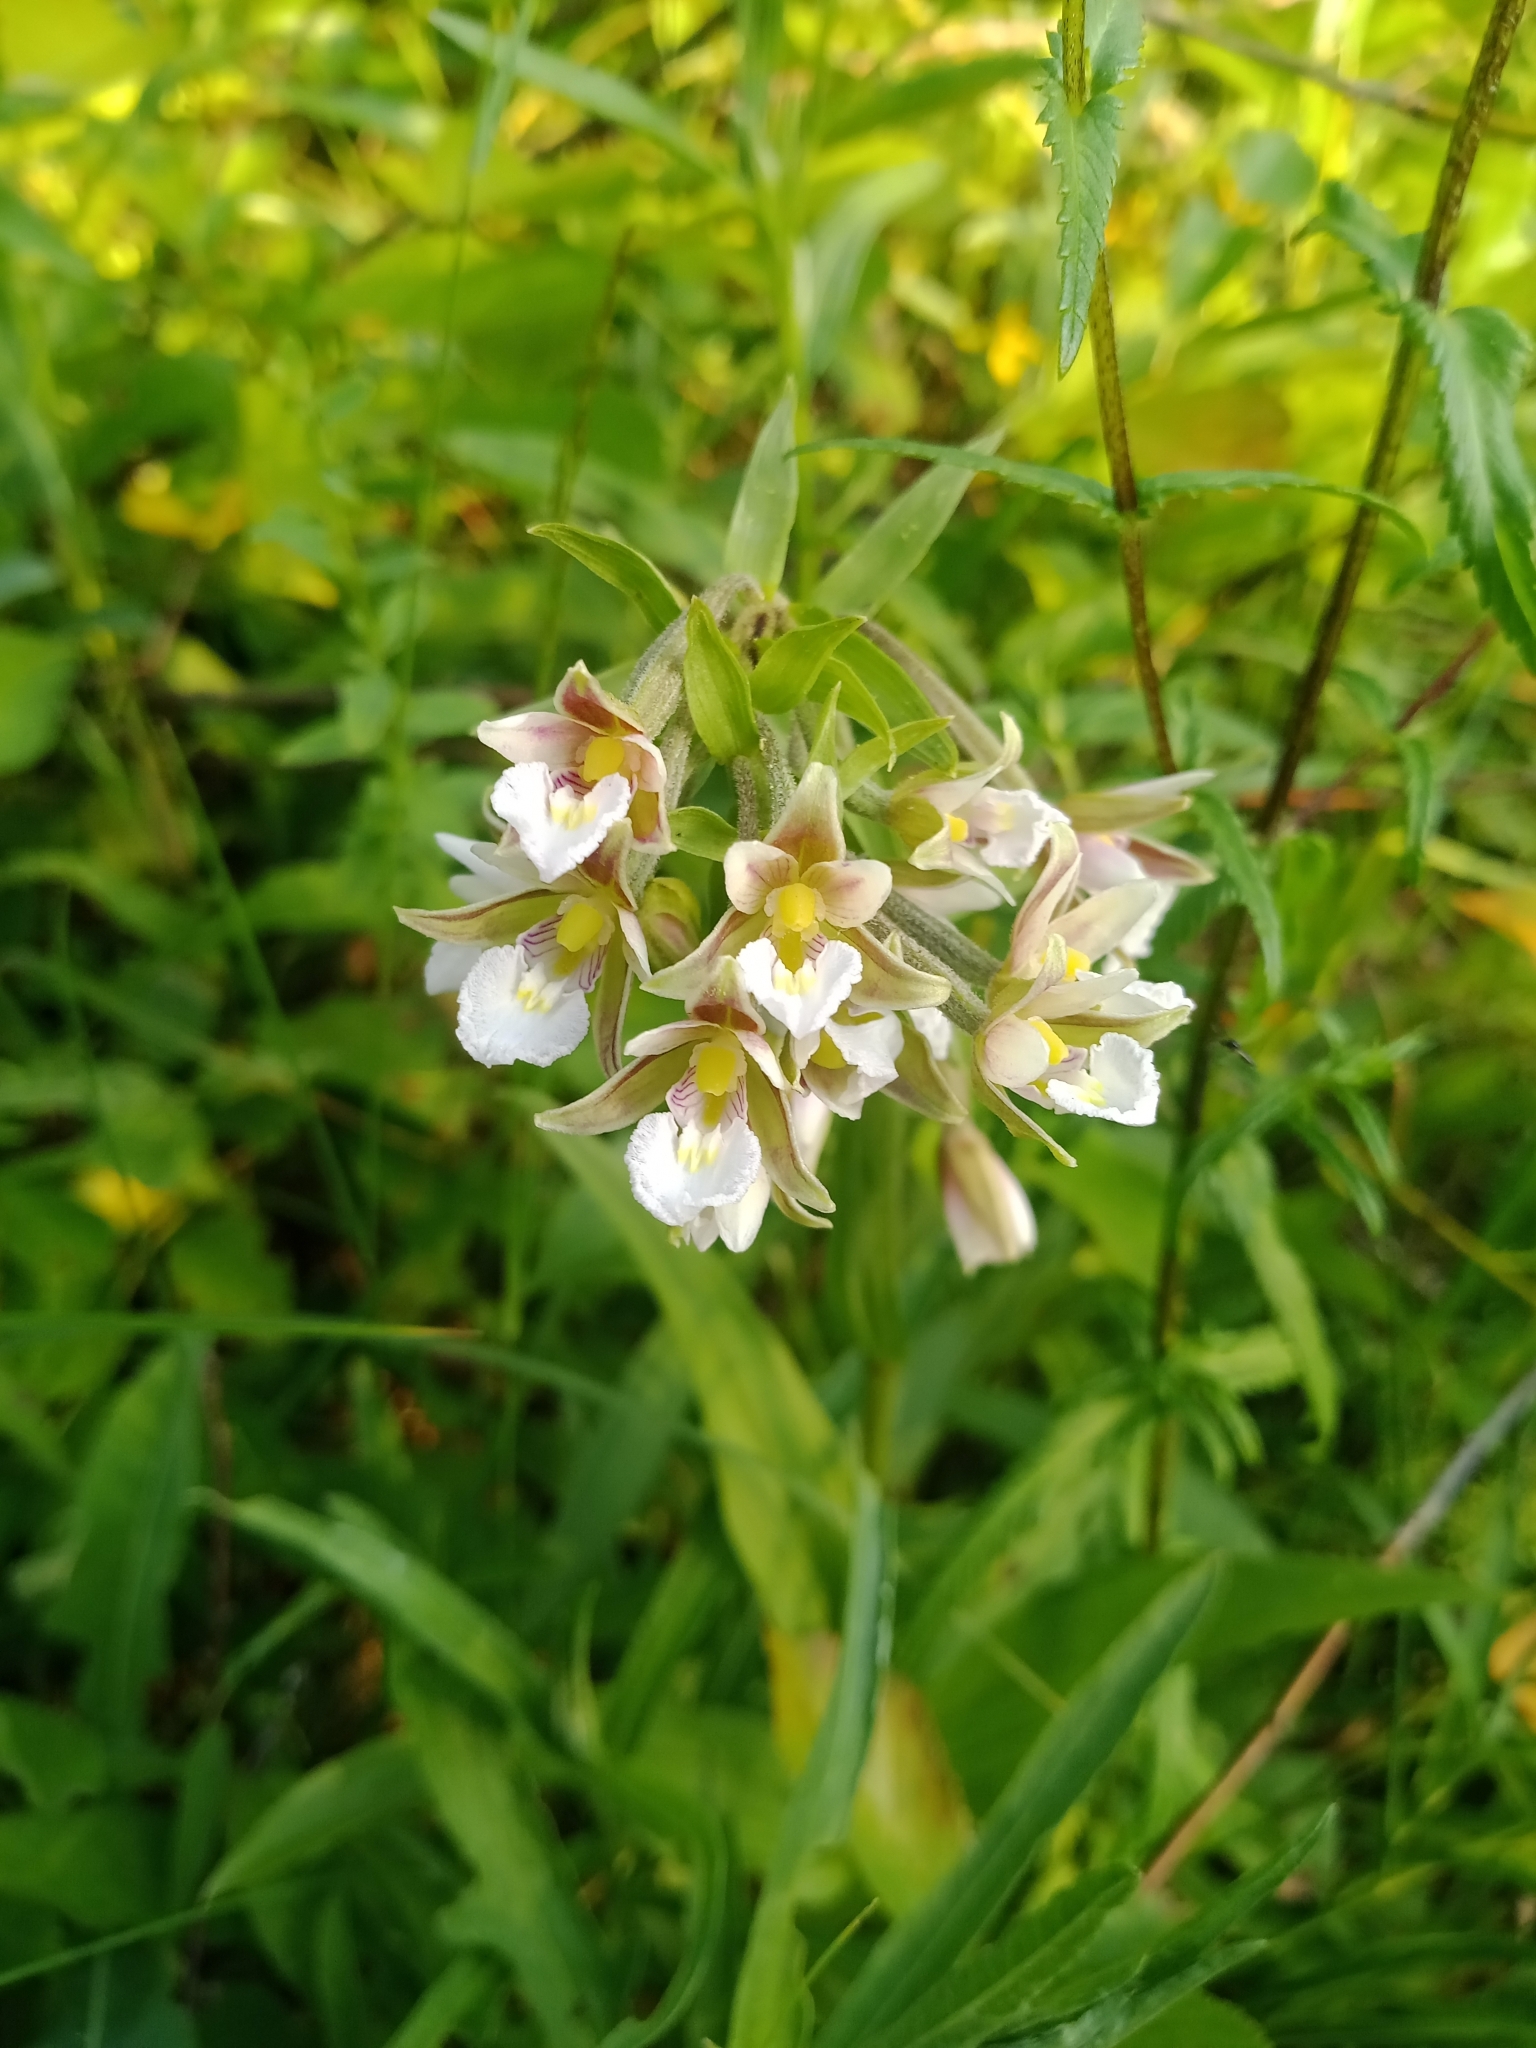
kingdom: Plantae
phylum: Tracheophyta
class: Liliopsida
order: Asparagales
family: Orchidaceae
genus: Epipactis
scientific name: Epipactis palustris
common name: Marsh helleborine
